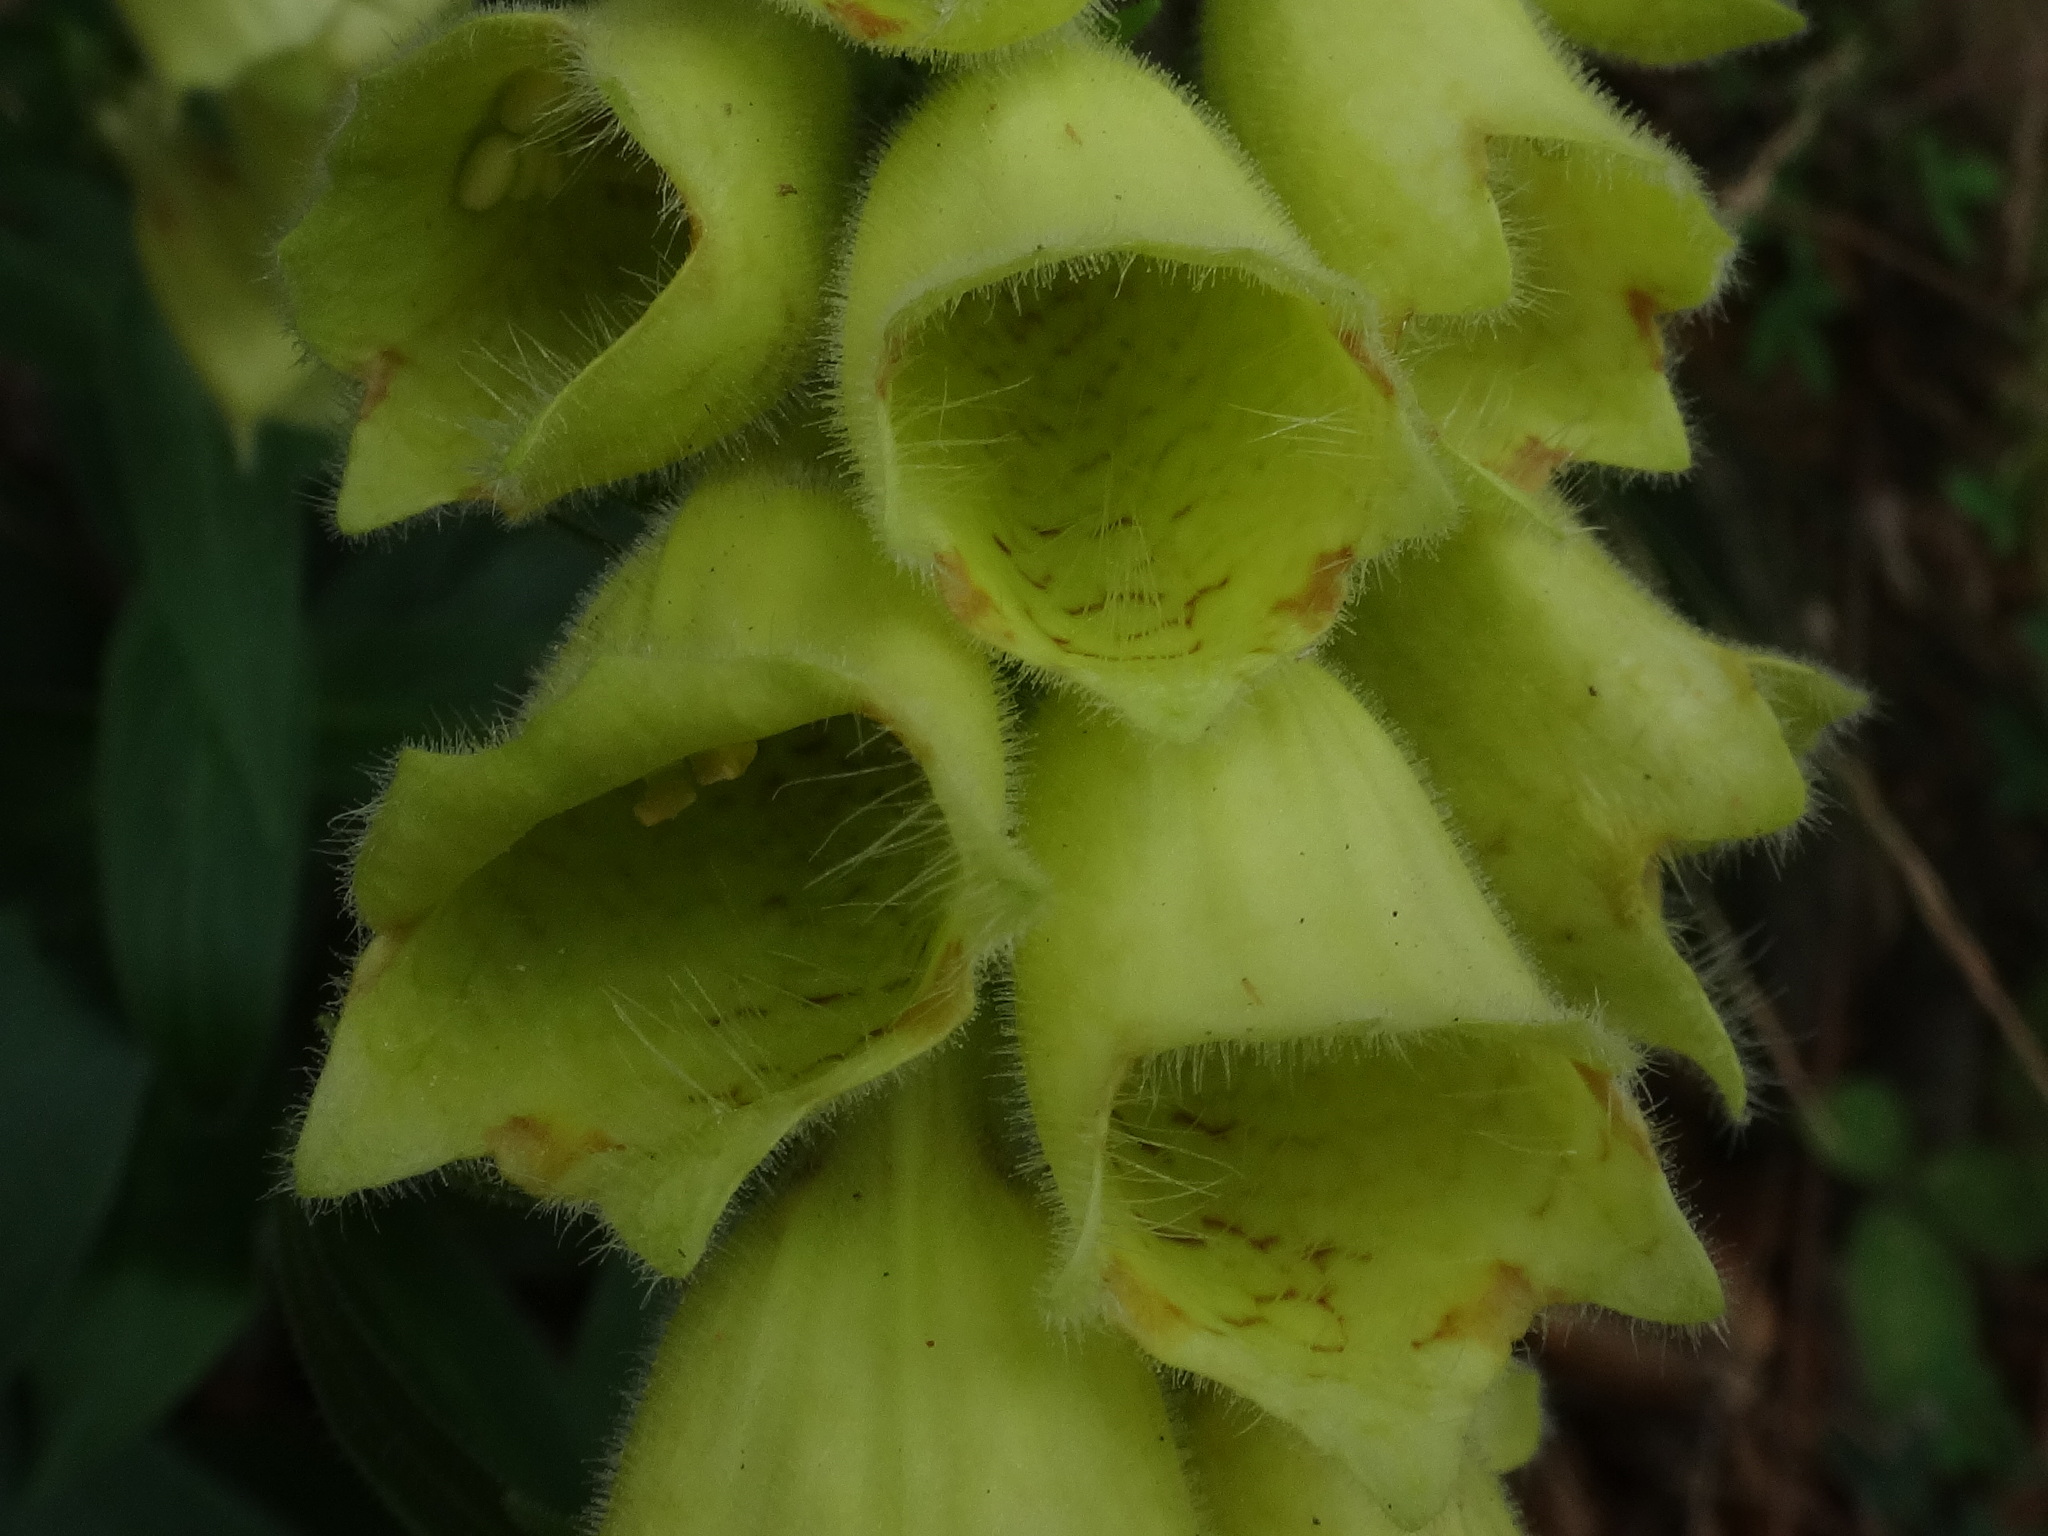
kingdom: Plantae
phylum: Tracheophyta
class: Magnoliopsida
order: Lamiales
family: Plantaginaceae
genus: Digitalis
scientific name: Digitalis grandiflora
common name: Yellow foxglove
